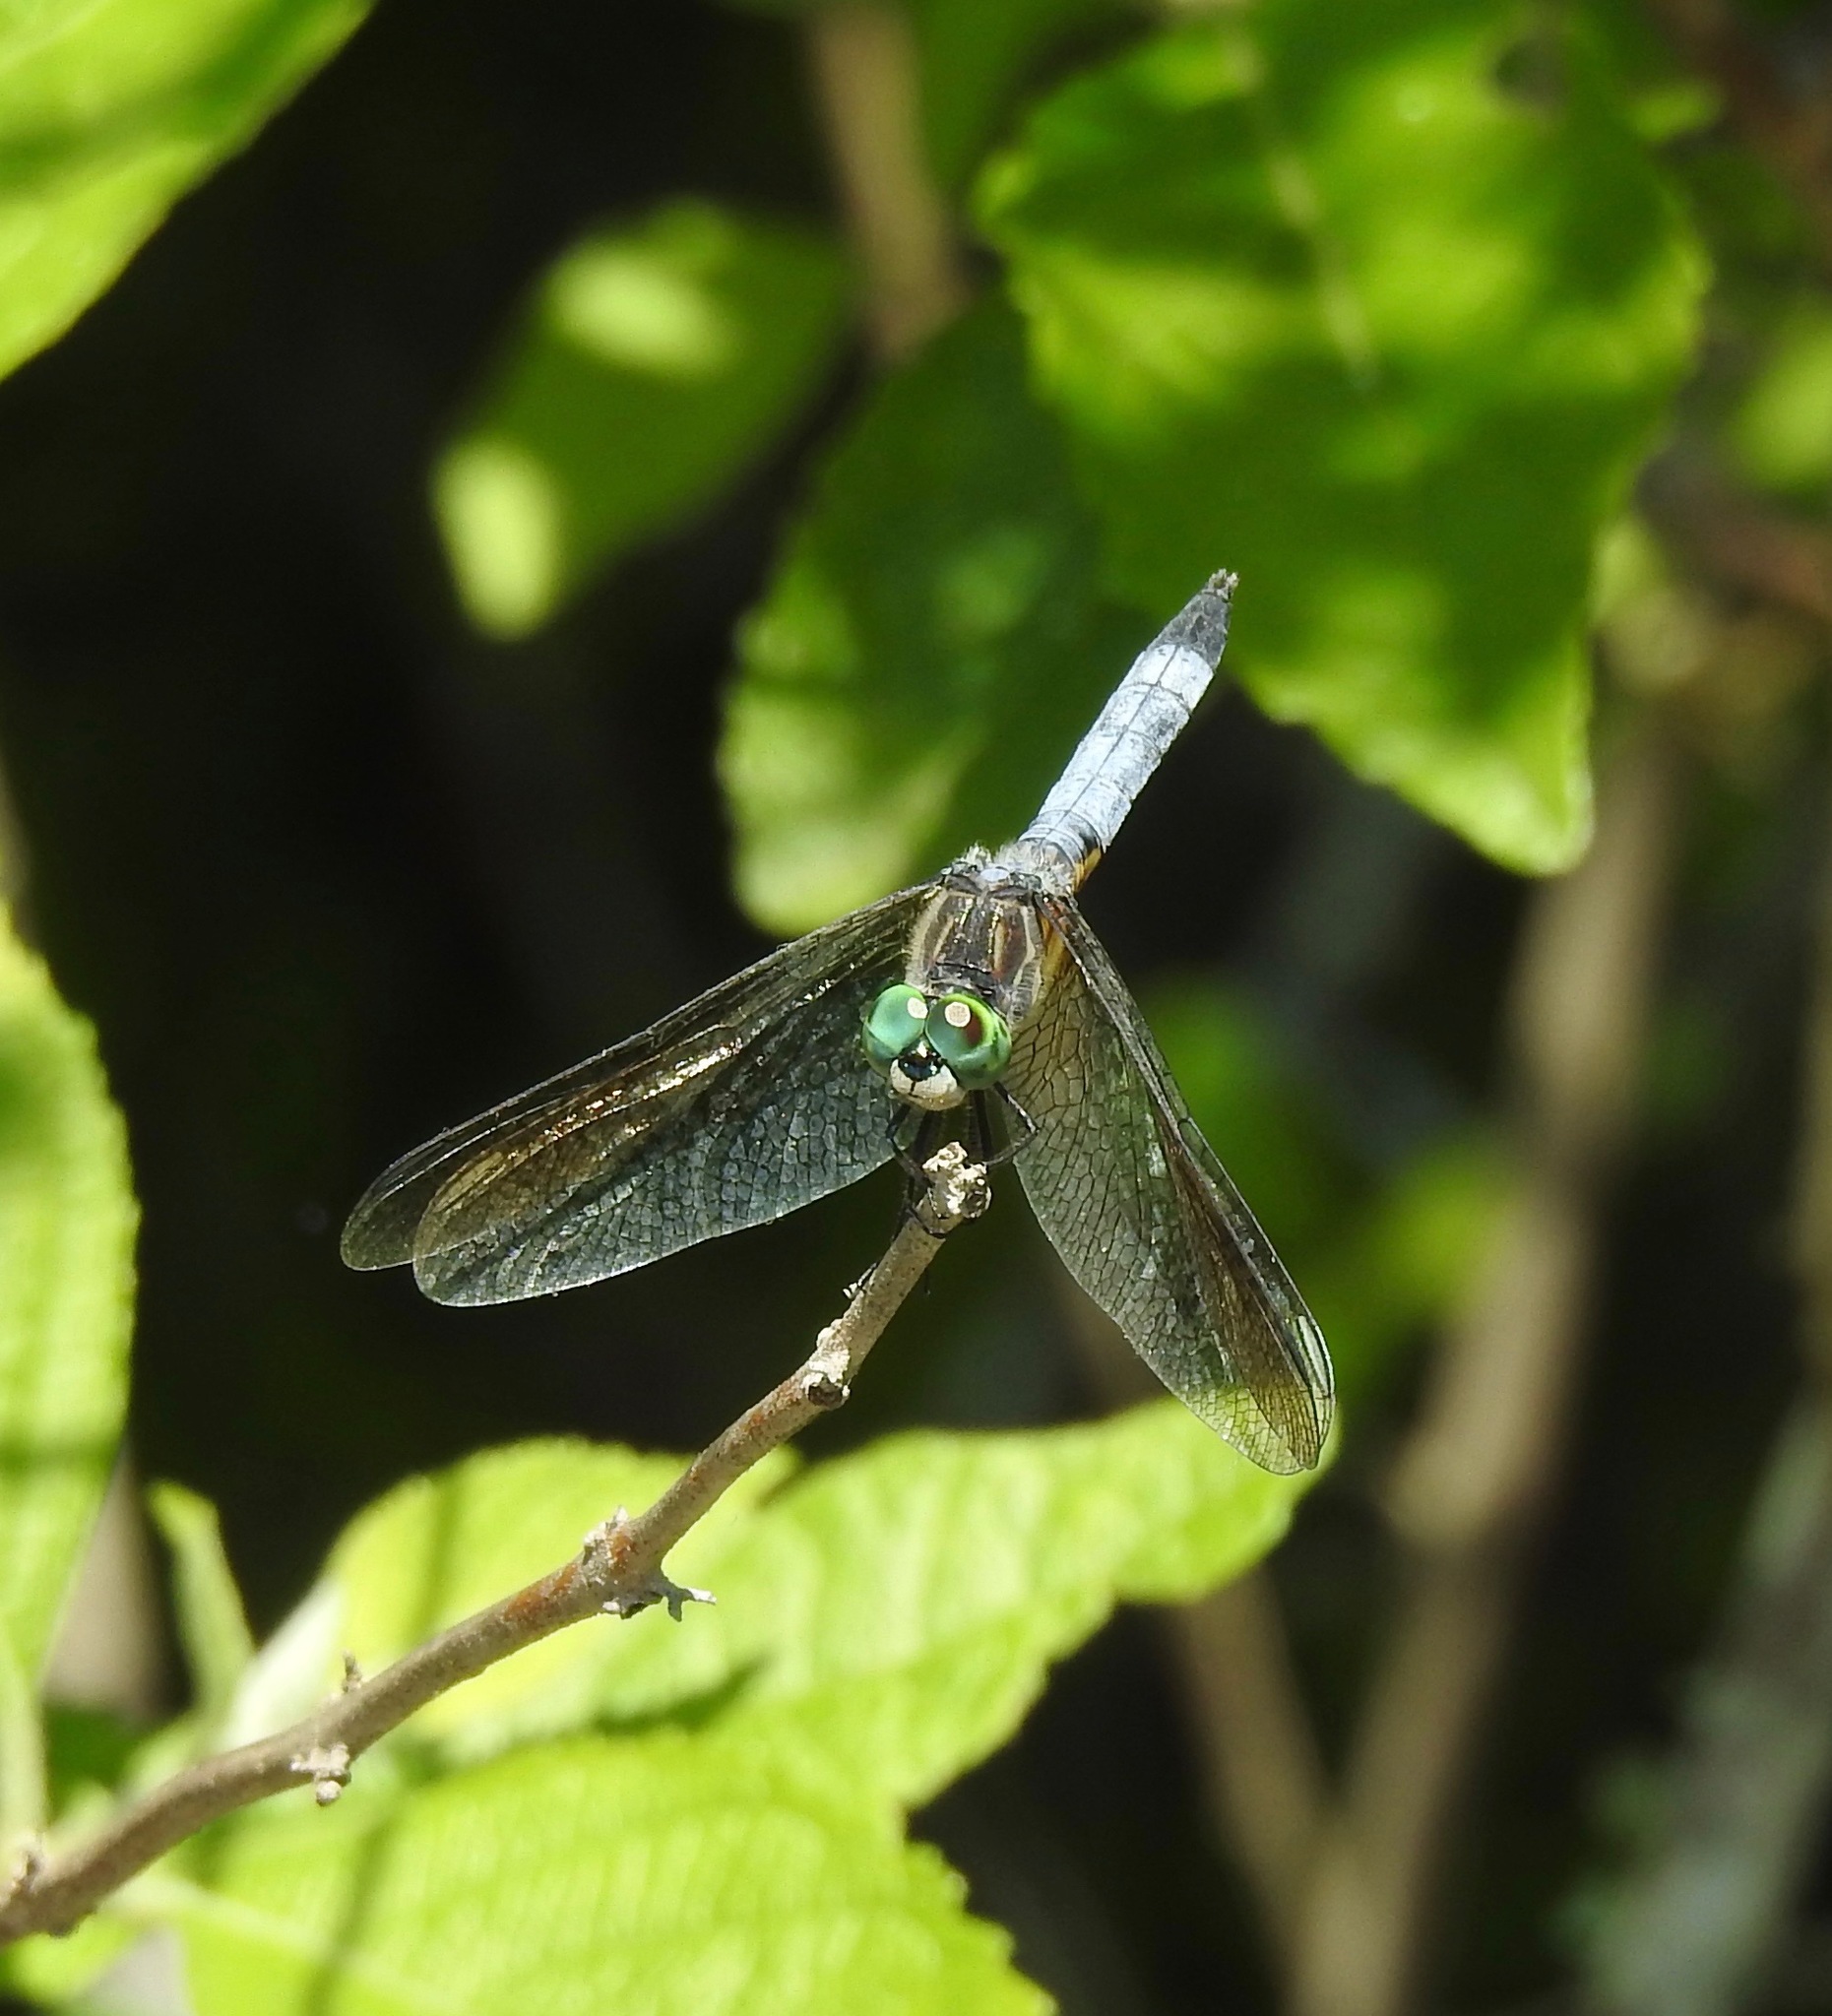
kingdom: Animalia
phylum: Arthropoda
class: Insecta
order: Odonata
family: Libellulidae
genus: Pachydiplax
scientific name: Pachydiplax longipennis
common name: Blue dasher
